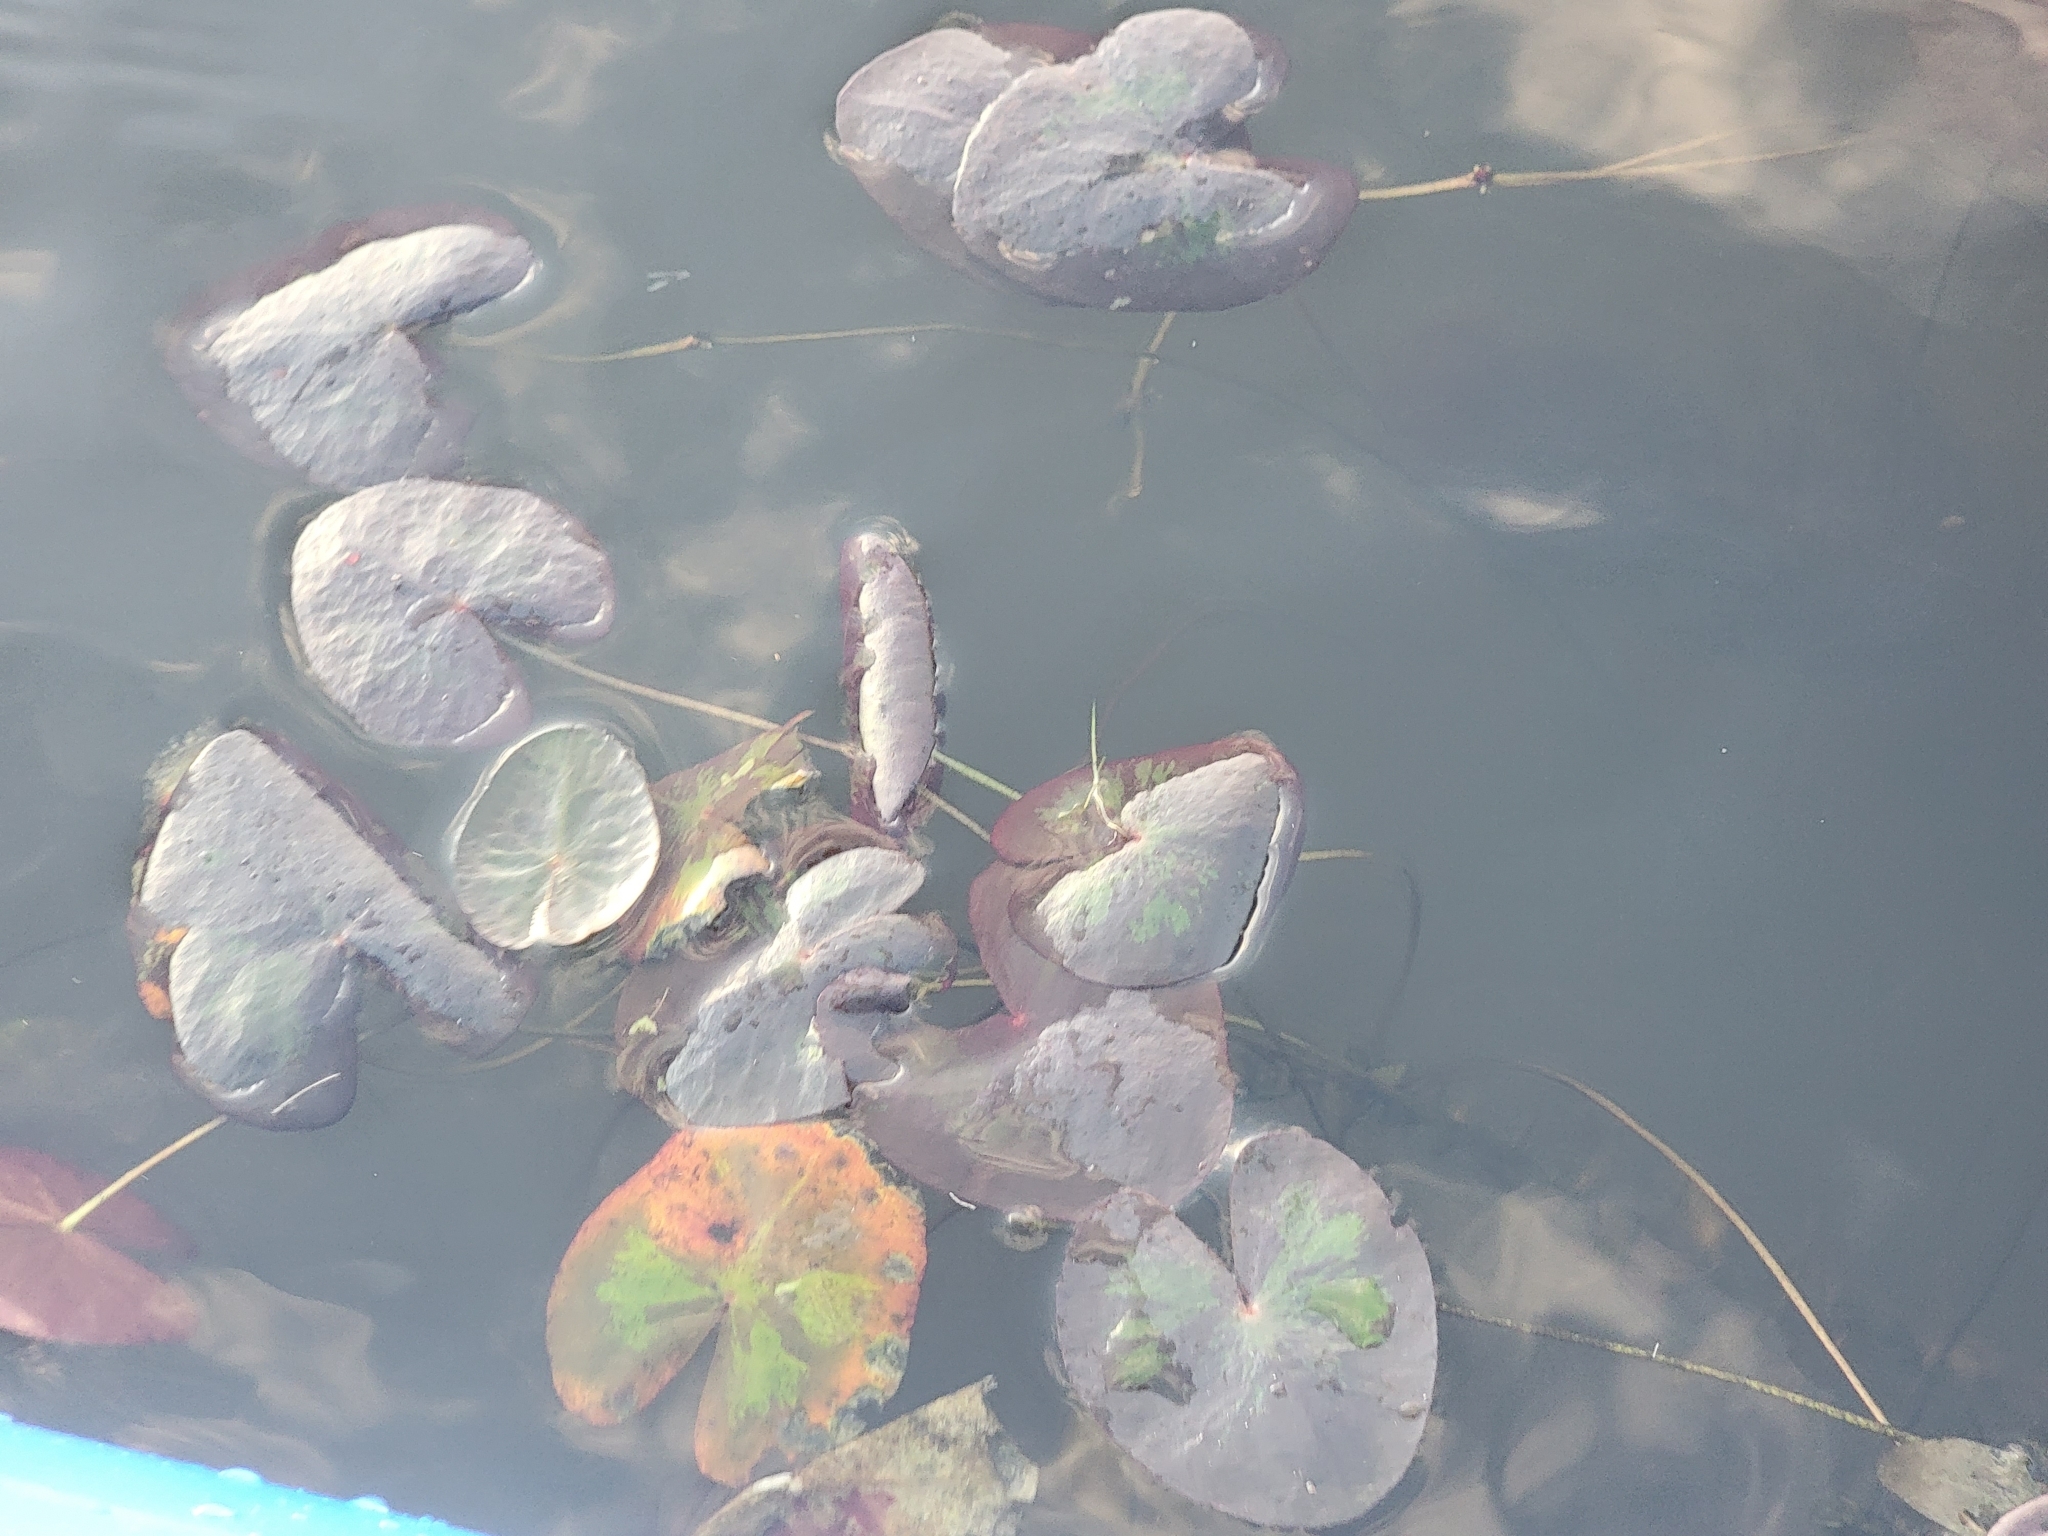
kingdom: Plantae
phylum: Tracheophyta
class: Magnoliopsida
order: Asterales
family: Menyanthaceae
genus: Nymphoides
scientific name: Nymphoides aquatica
